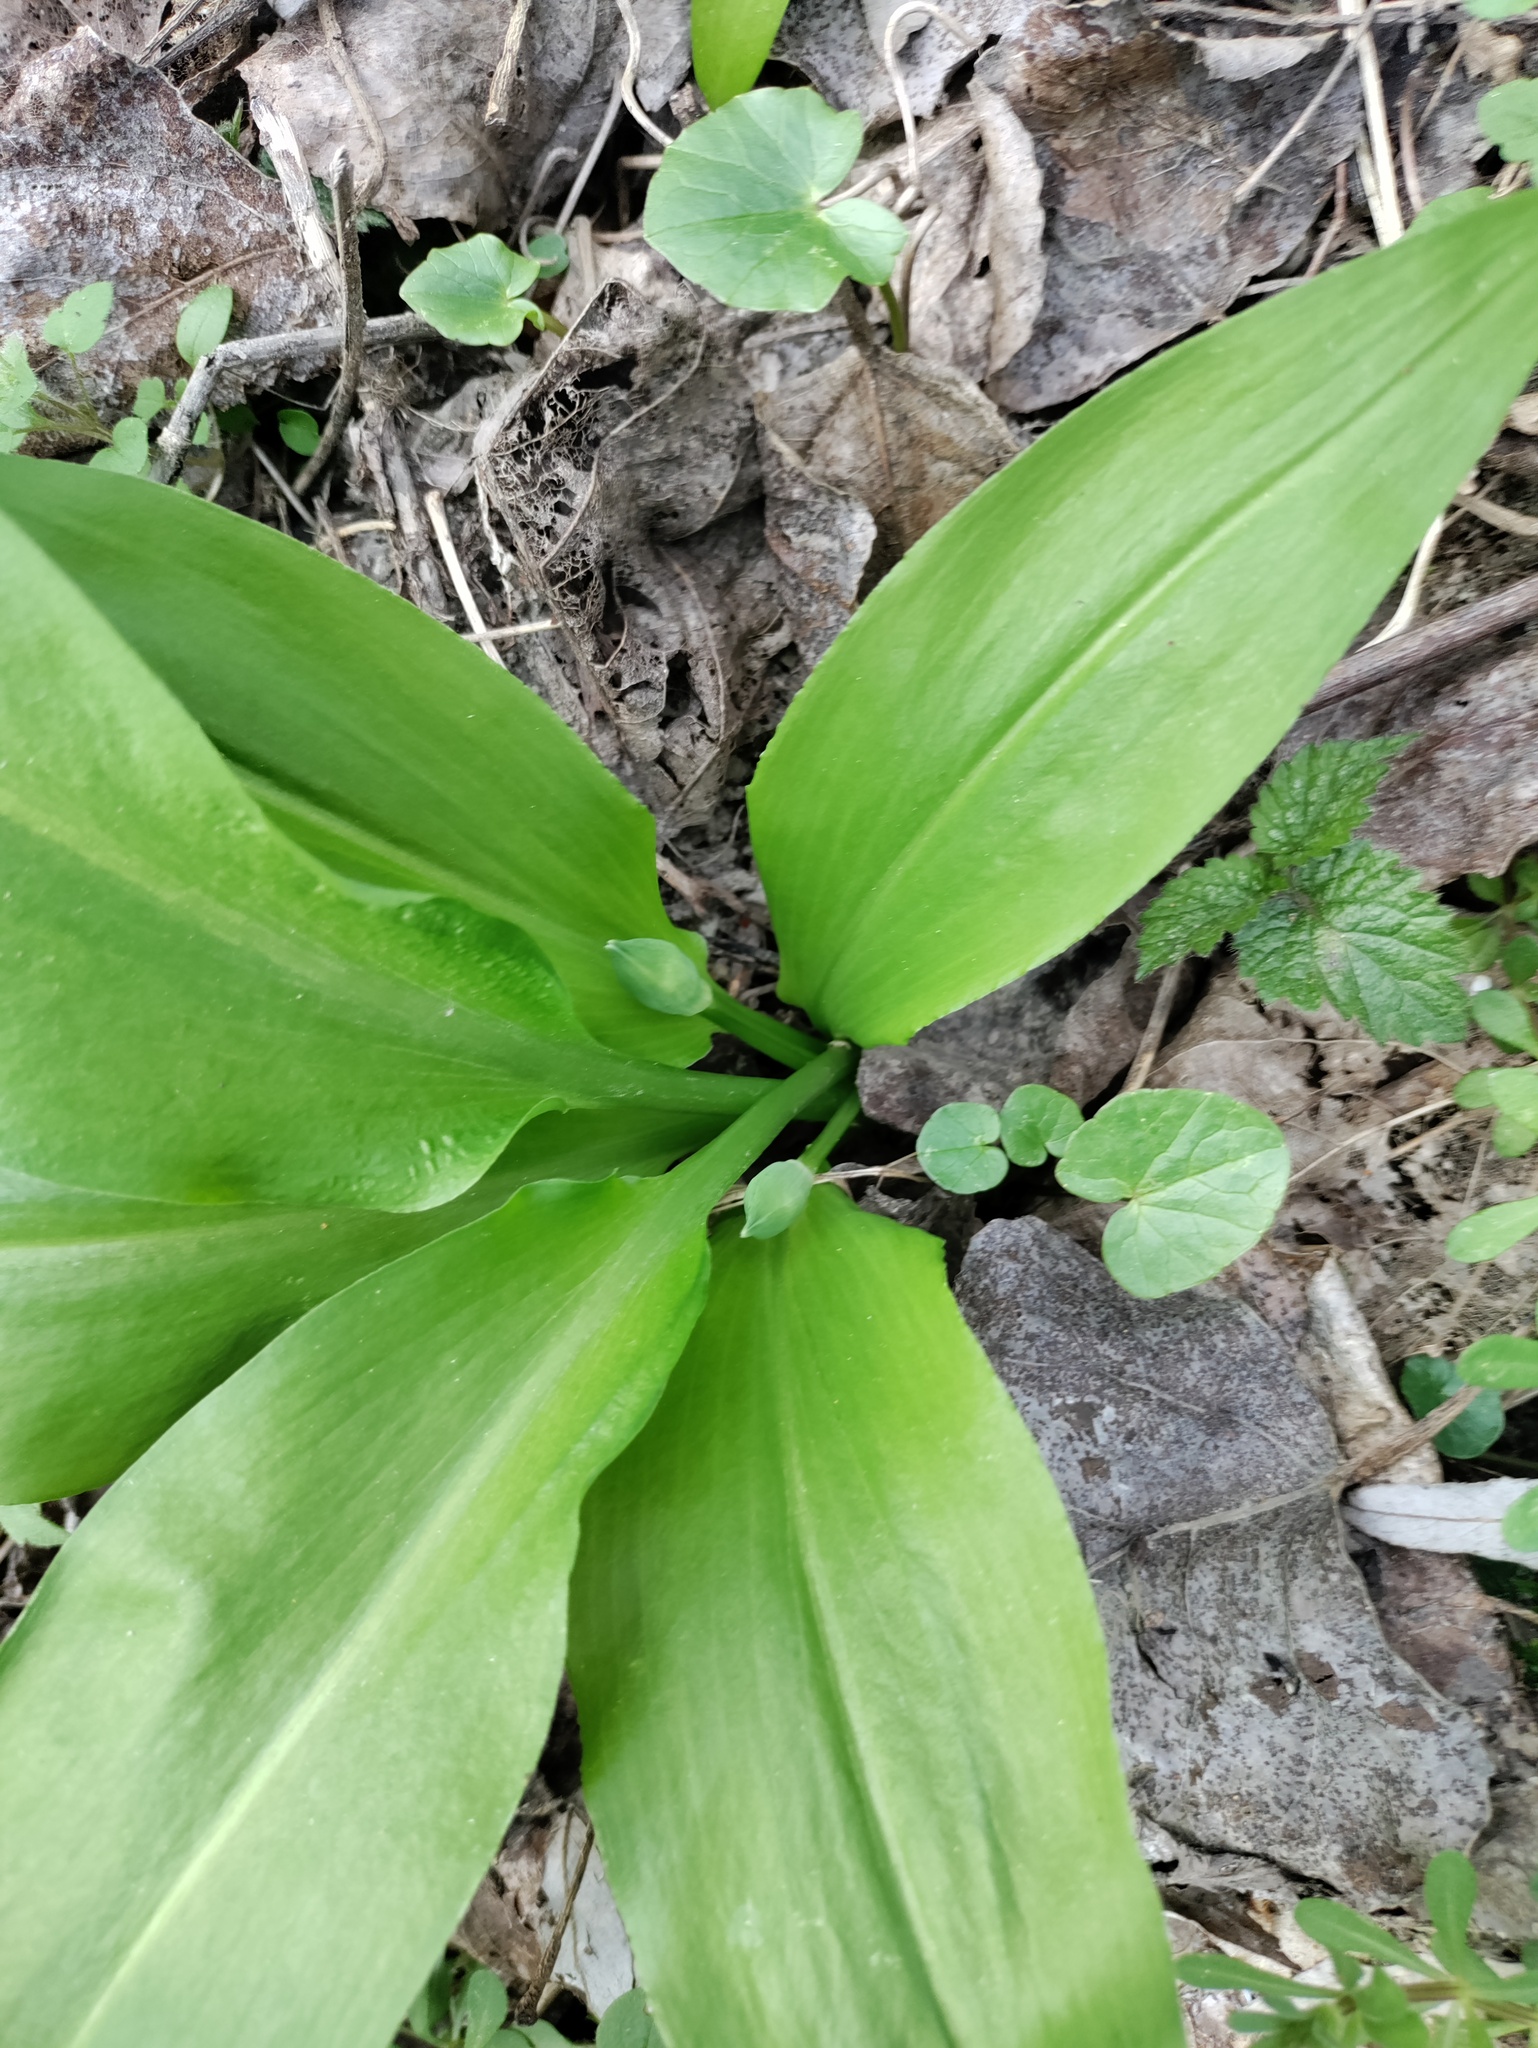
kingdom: Plantae
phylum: Tracheophyta
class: Liliopsida
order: Asparagales
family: Amaryllidaceae
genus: Allium
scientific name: Allium ursinum
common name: Ramsons
